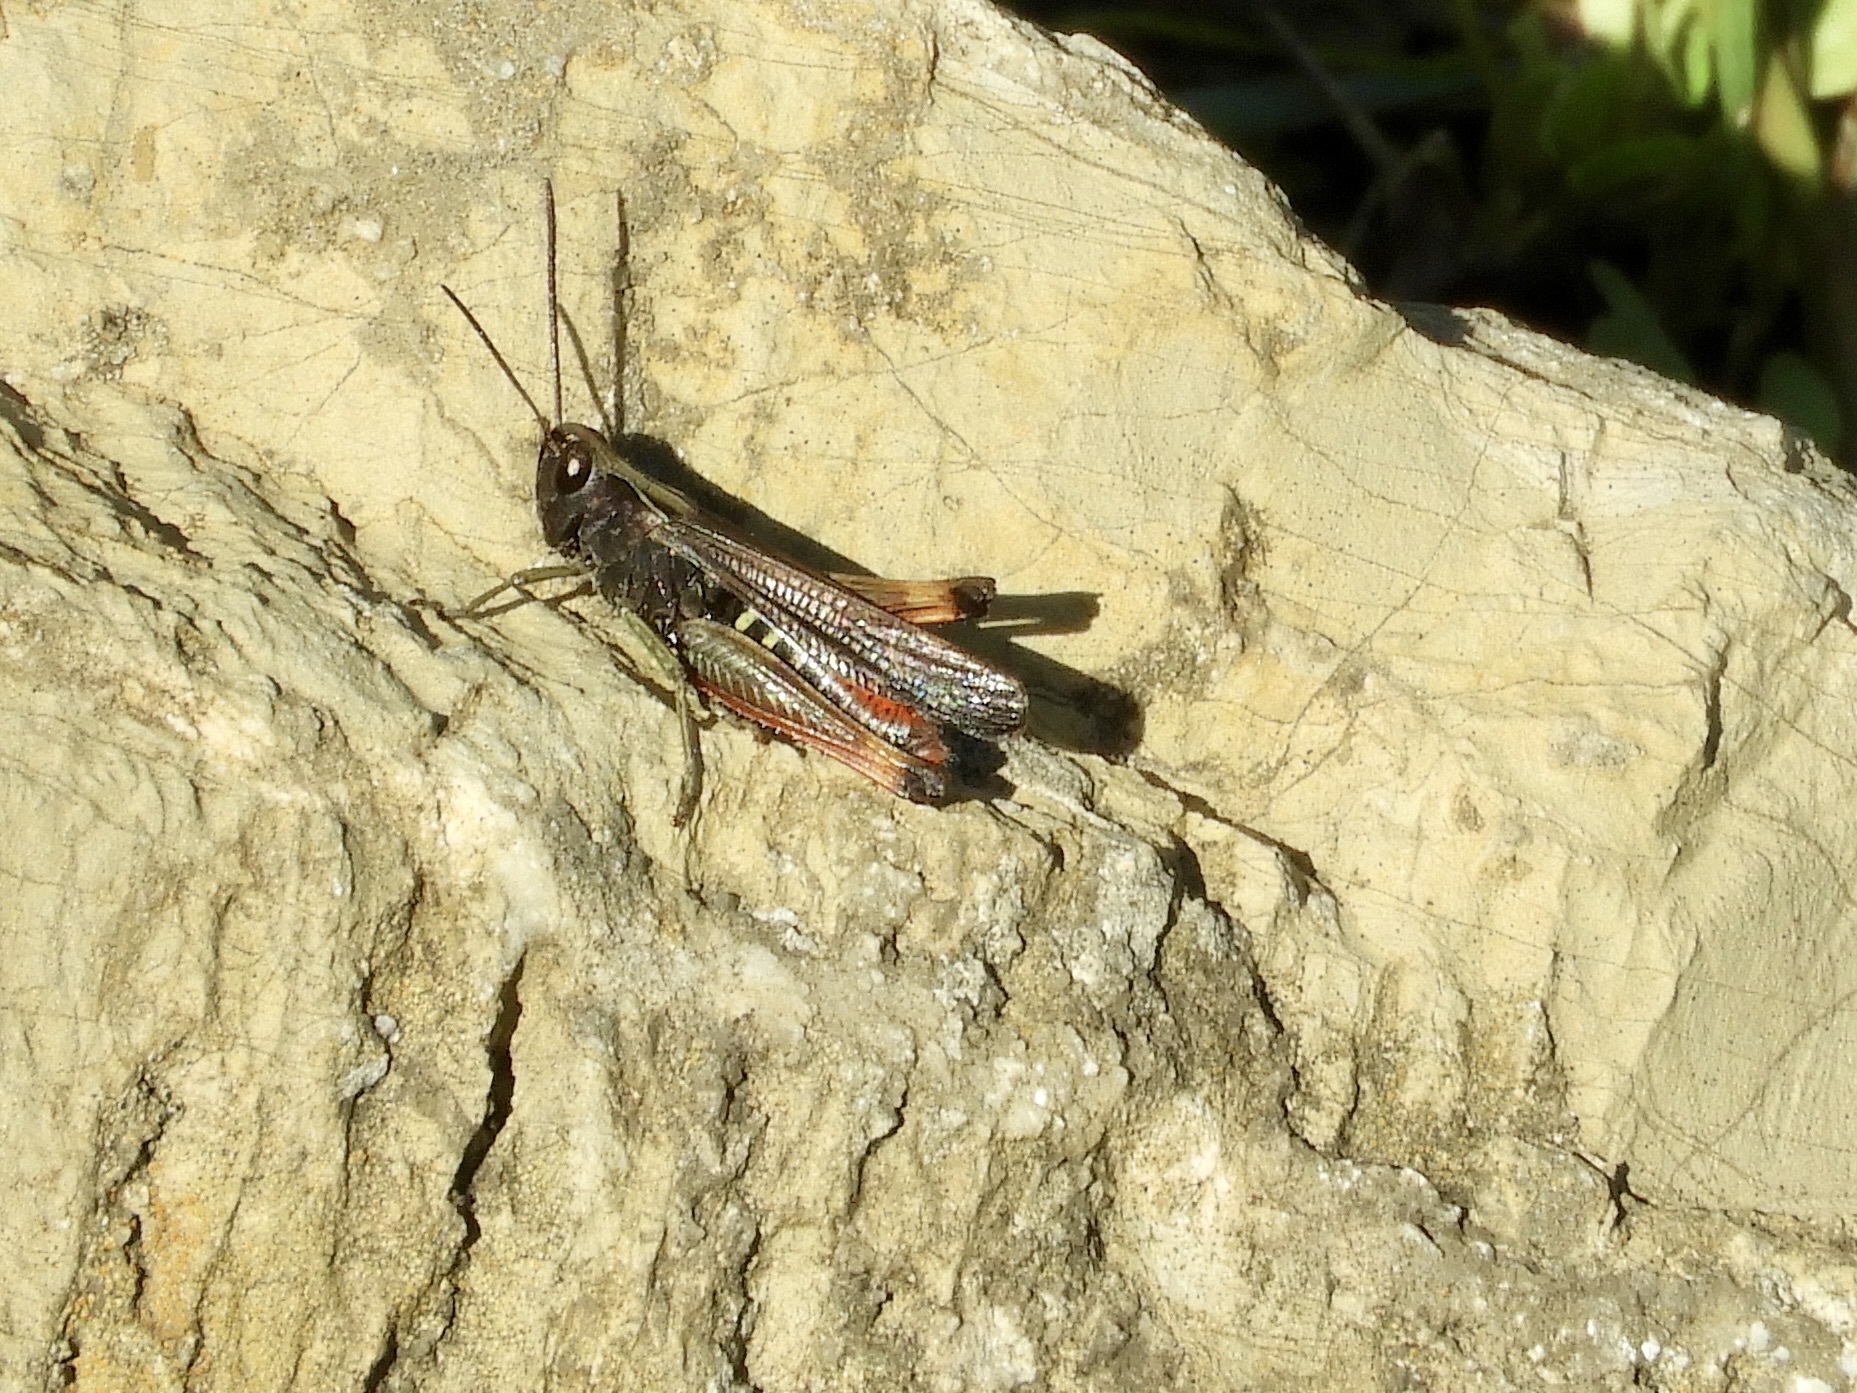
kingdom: Animalia
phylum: Arthropoda
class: Insecta
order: Orthoptera
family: Acrididae
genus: Omocestus
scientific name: Omocestus rufipes
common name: Woodland grasshopper
